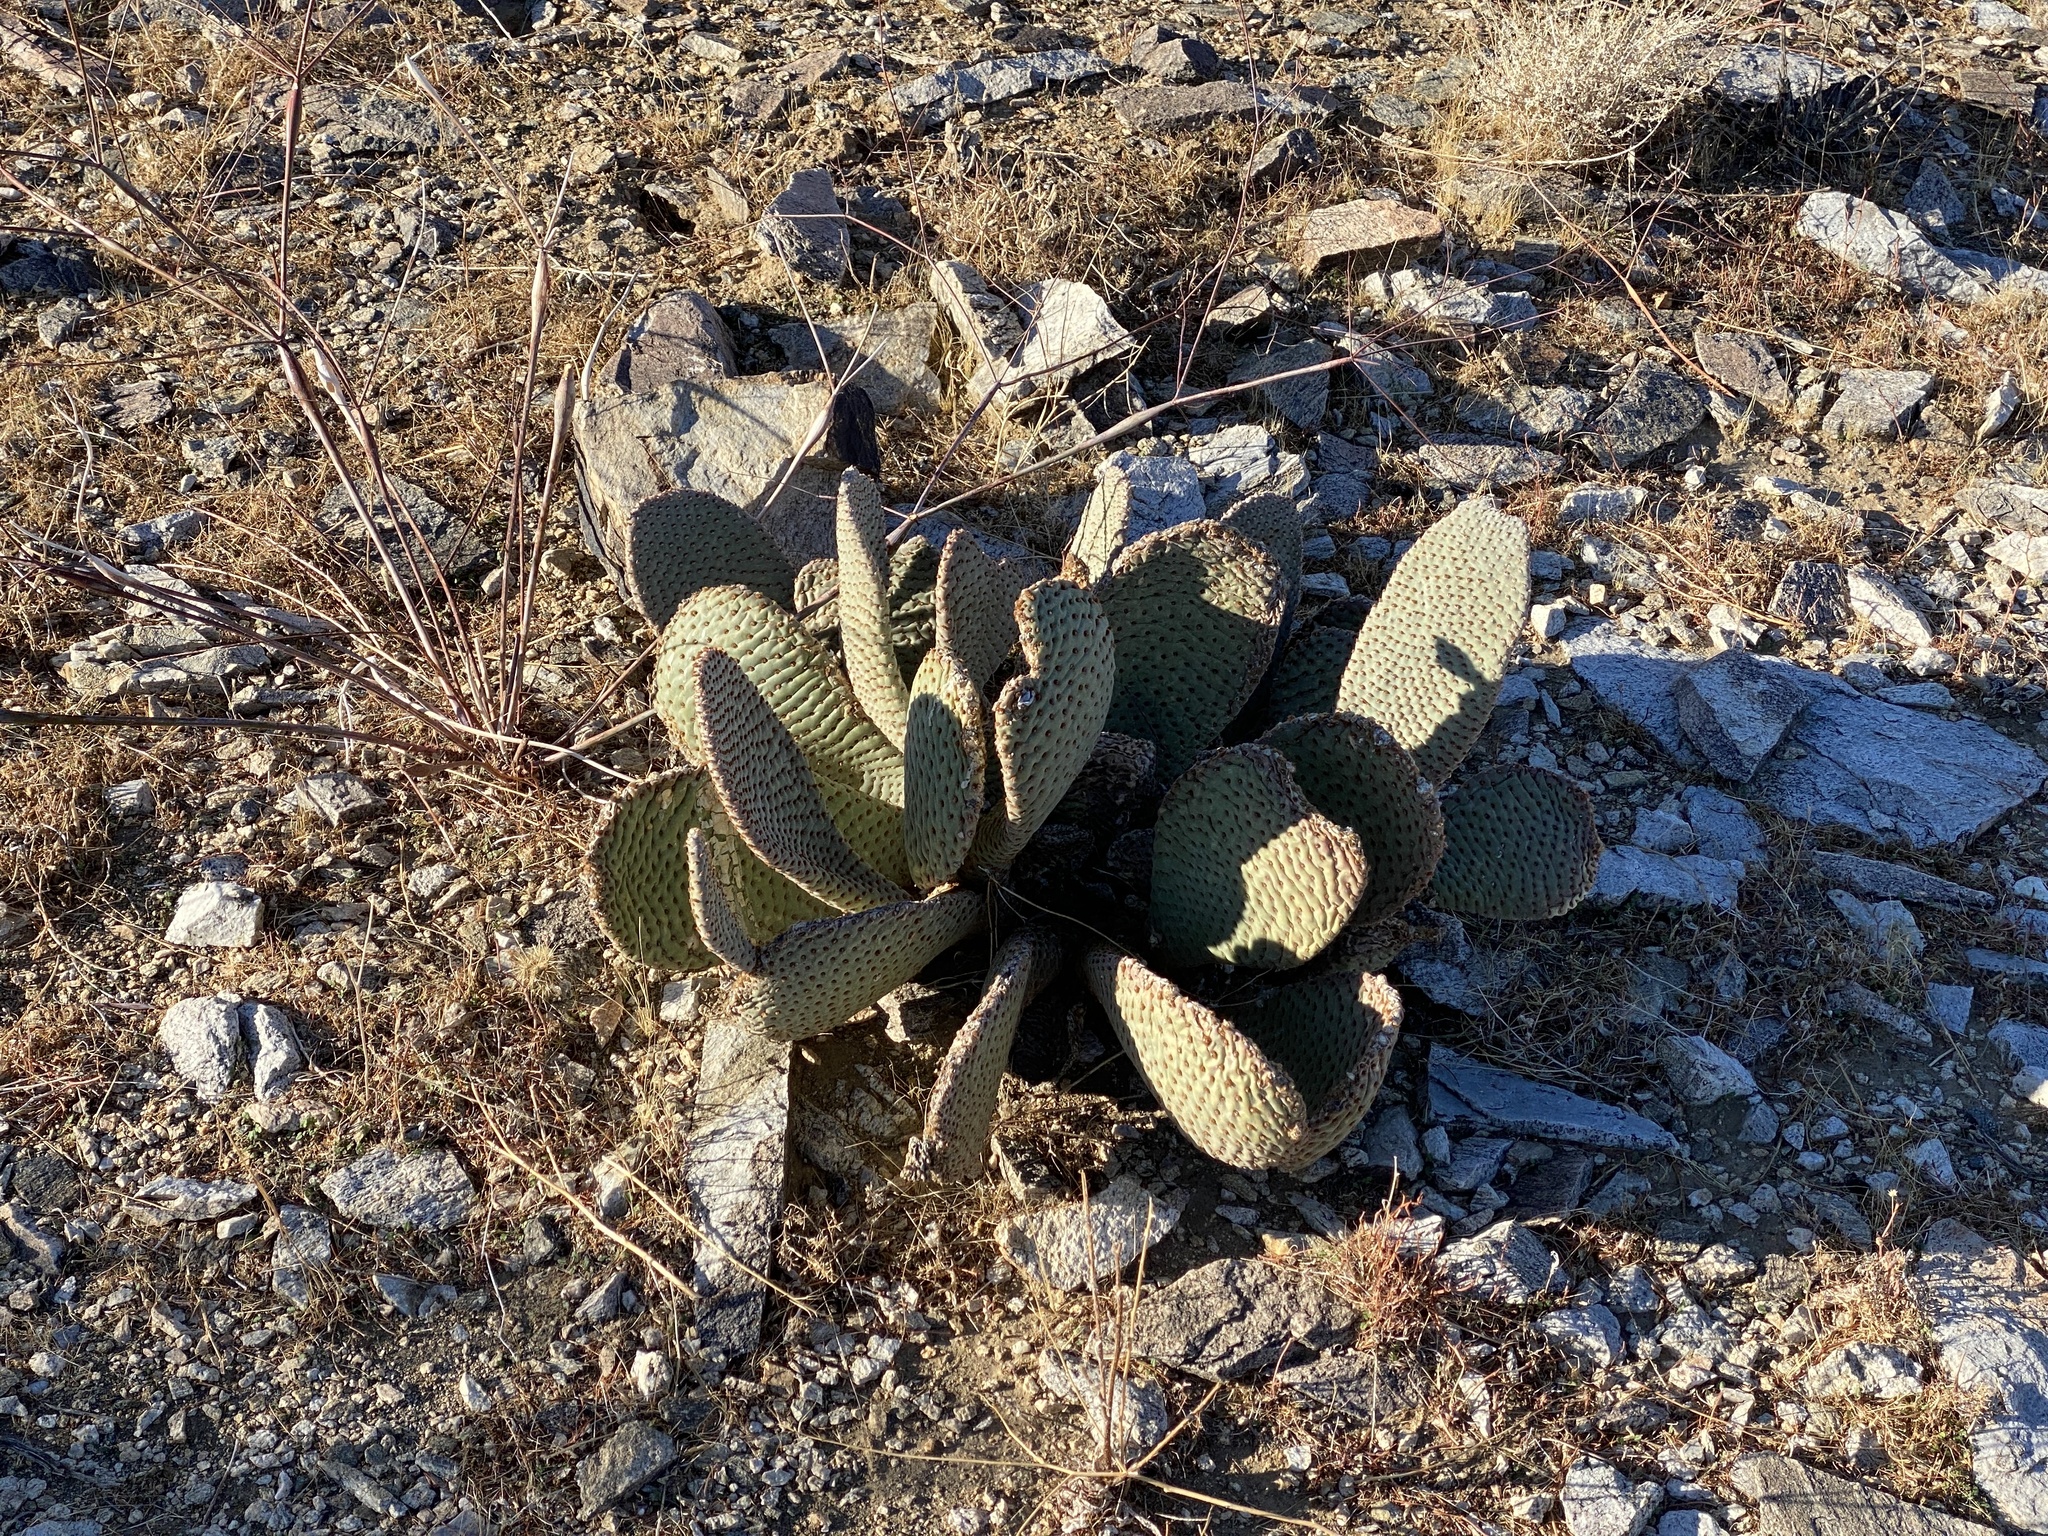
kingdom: Plantae
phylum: Tracheophyta
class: Magnoliopsida
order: Caryophyllales
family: Cactaceae
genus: Opuntia
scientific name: Opuntia basilaris
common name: Beavertail prickly-pear
